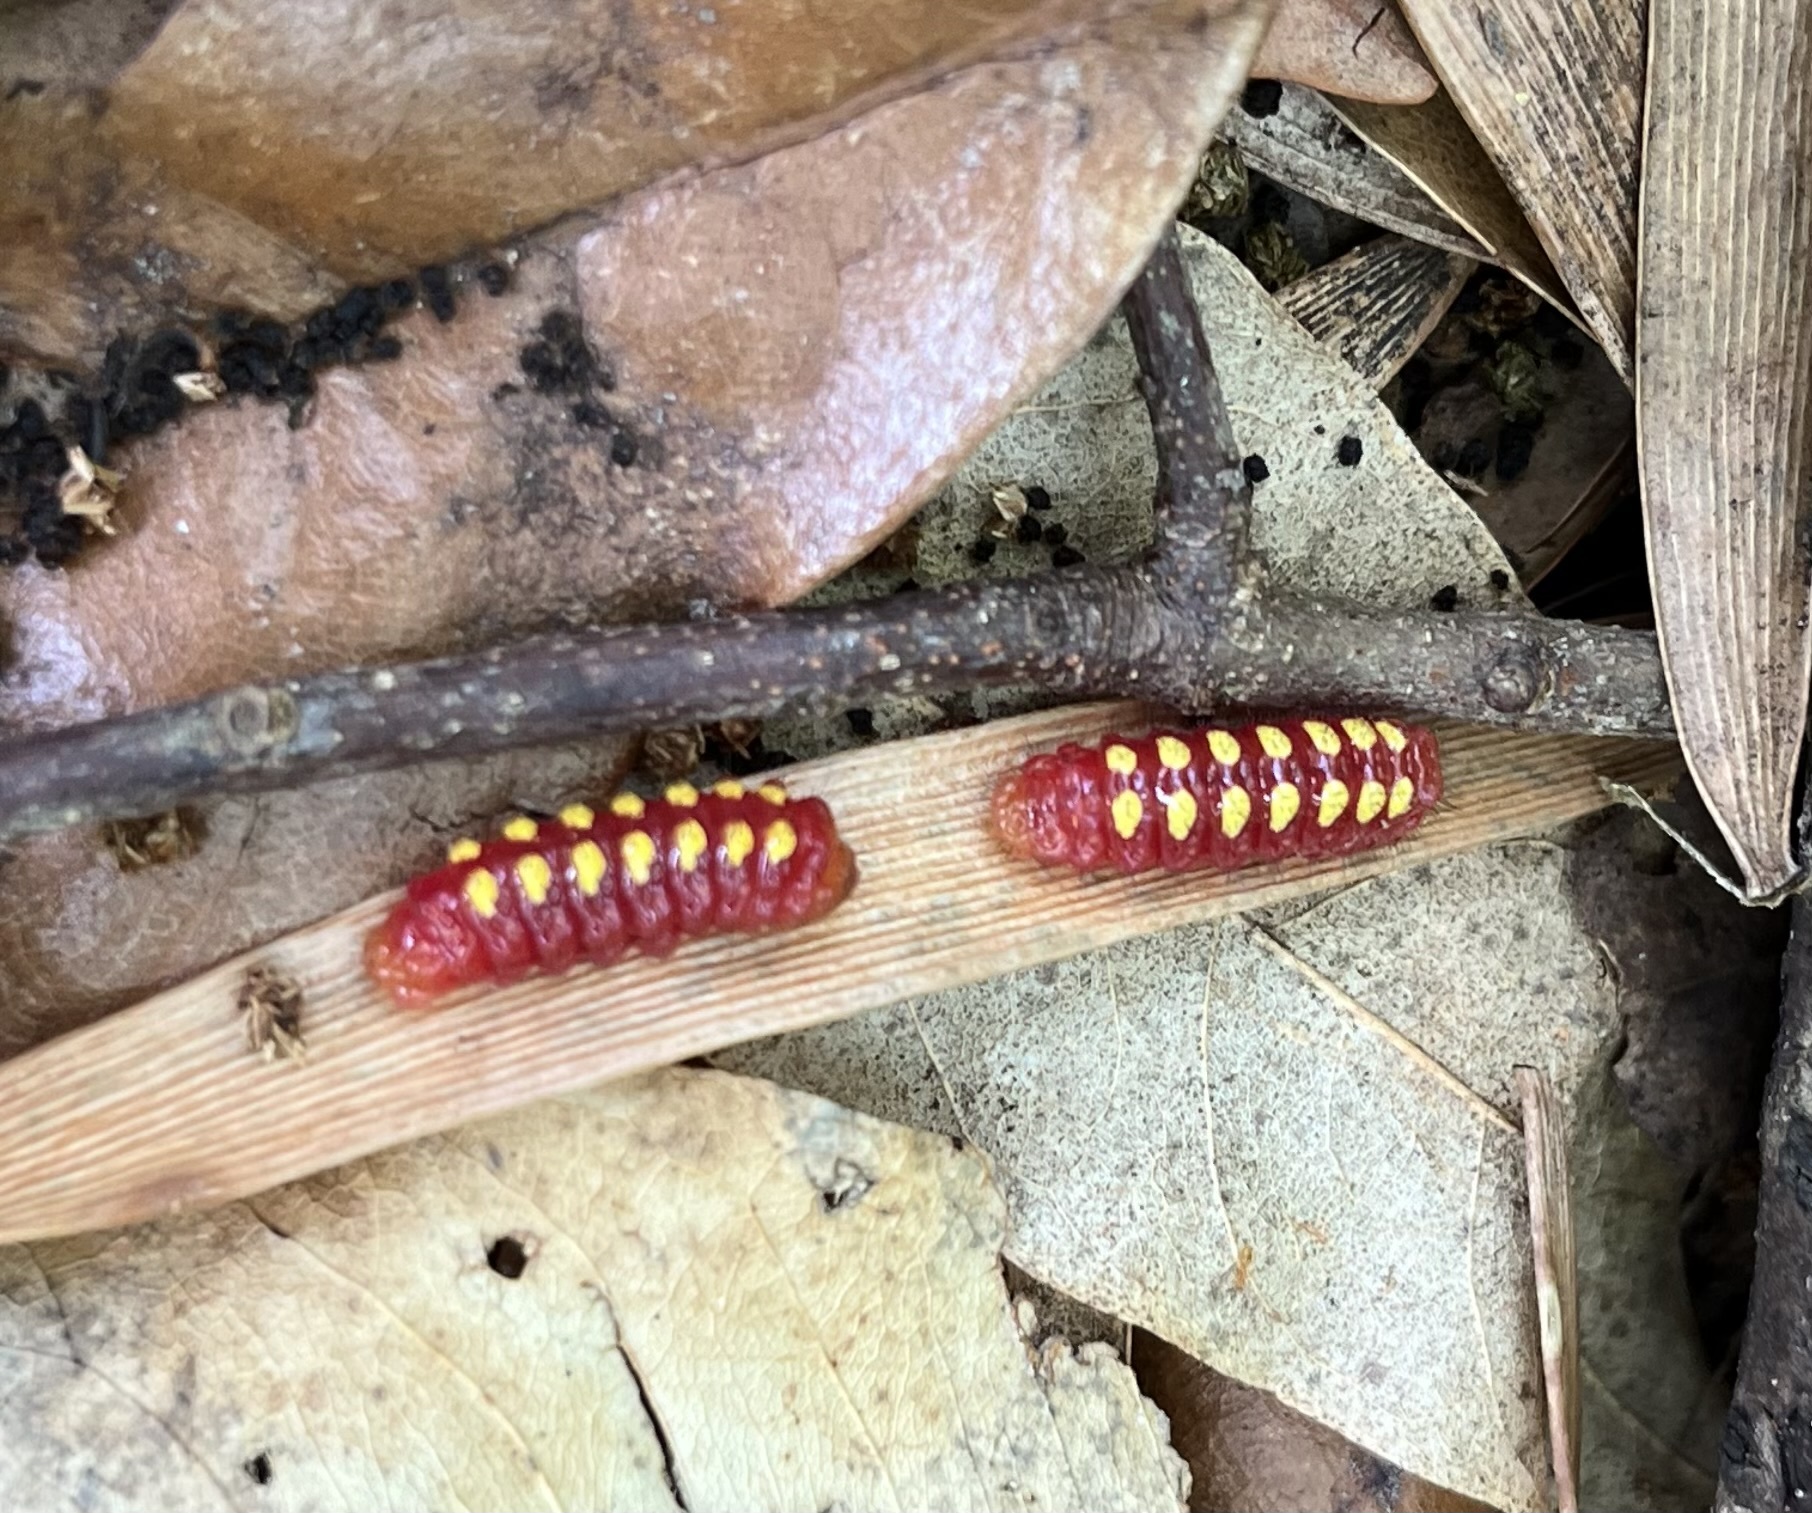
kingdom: Animalia
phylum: Arthropoda
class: Insecta
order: Lepidoptera
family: Lycaenidae
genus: Eumaeus
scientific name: Eumaeus atala
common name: Atala
